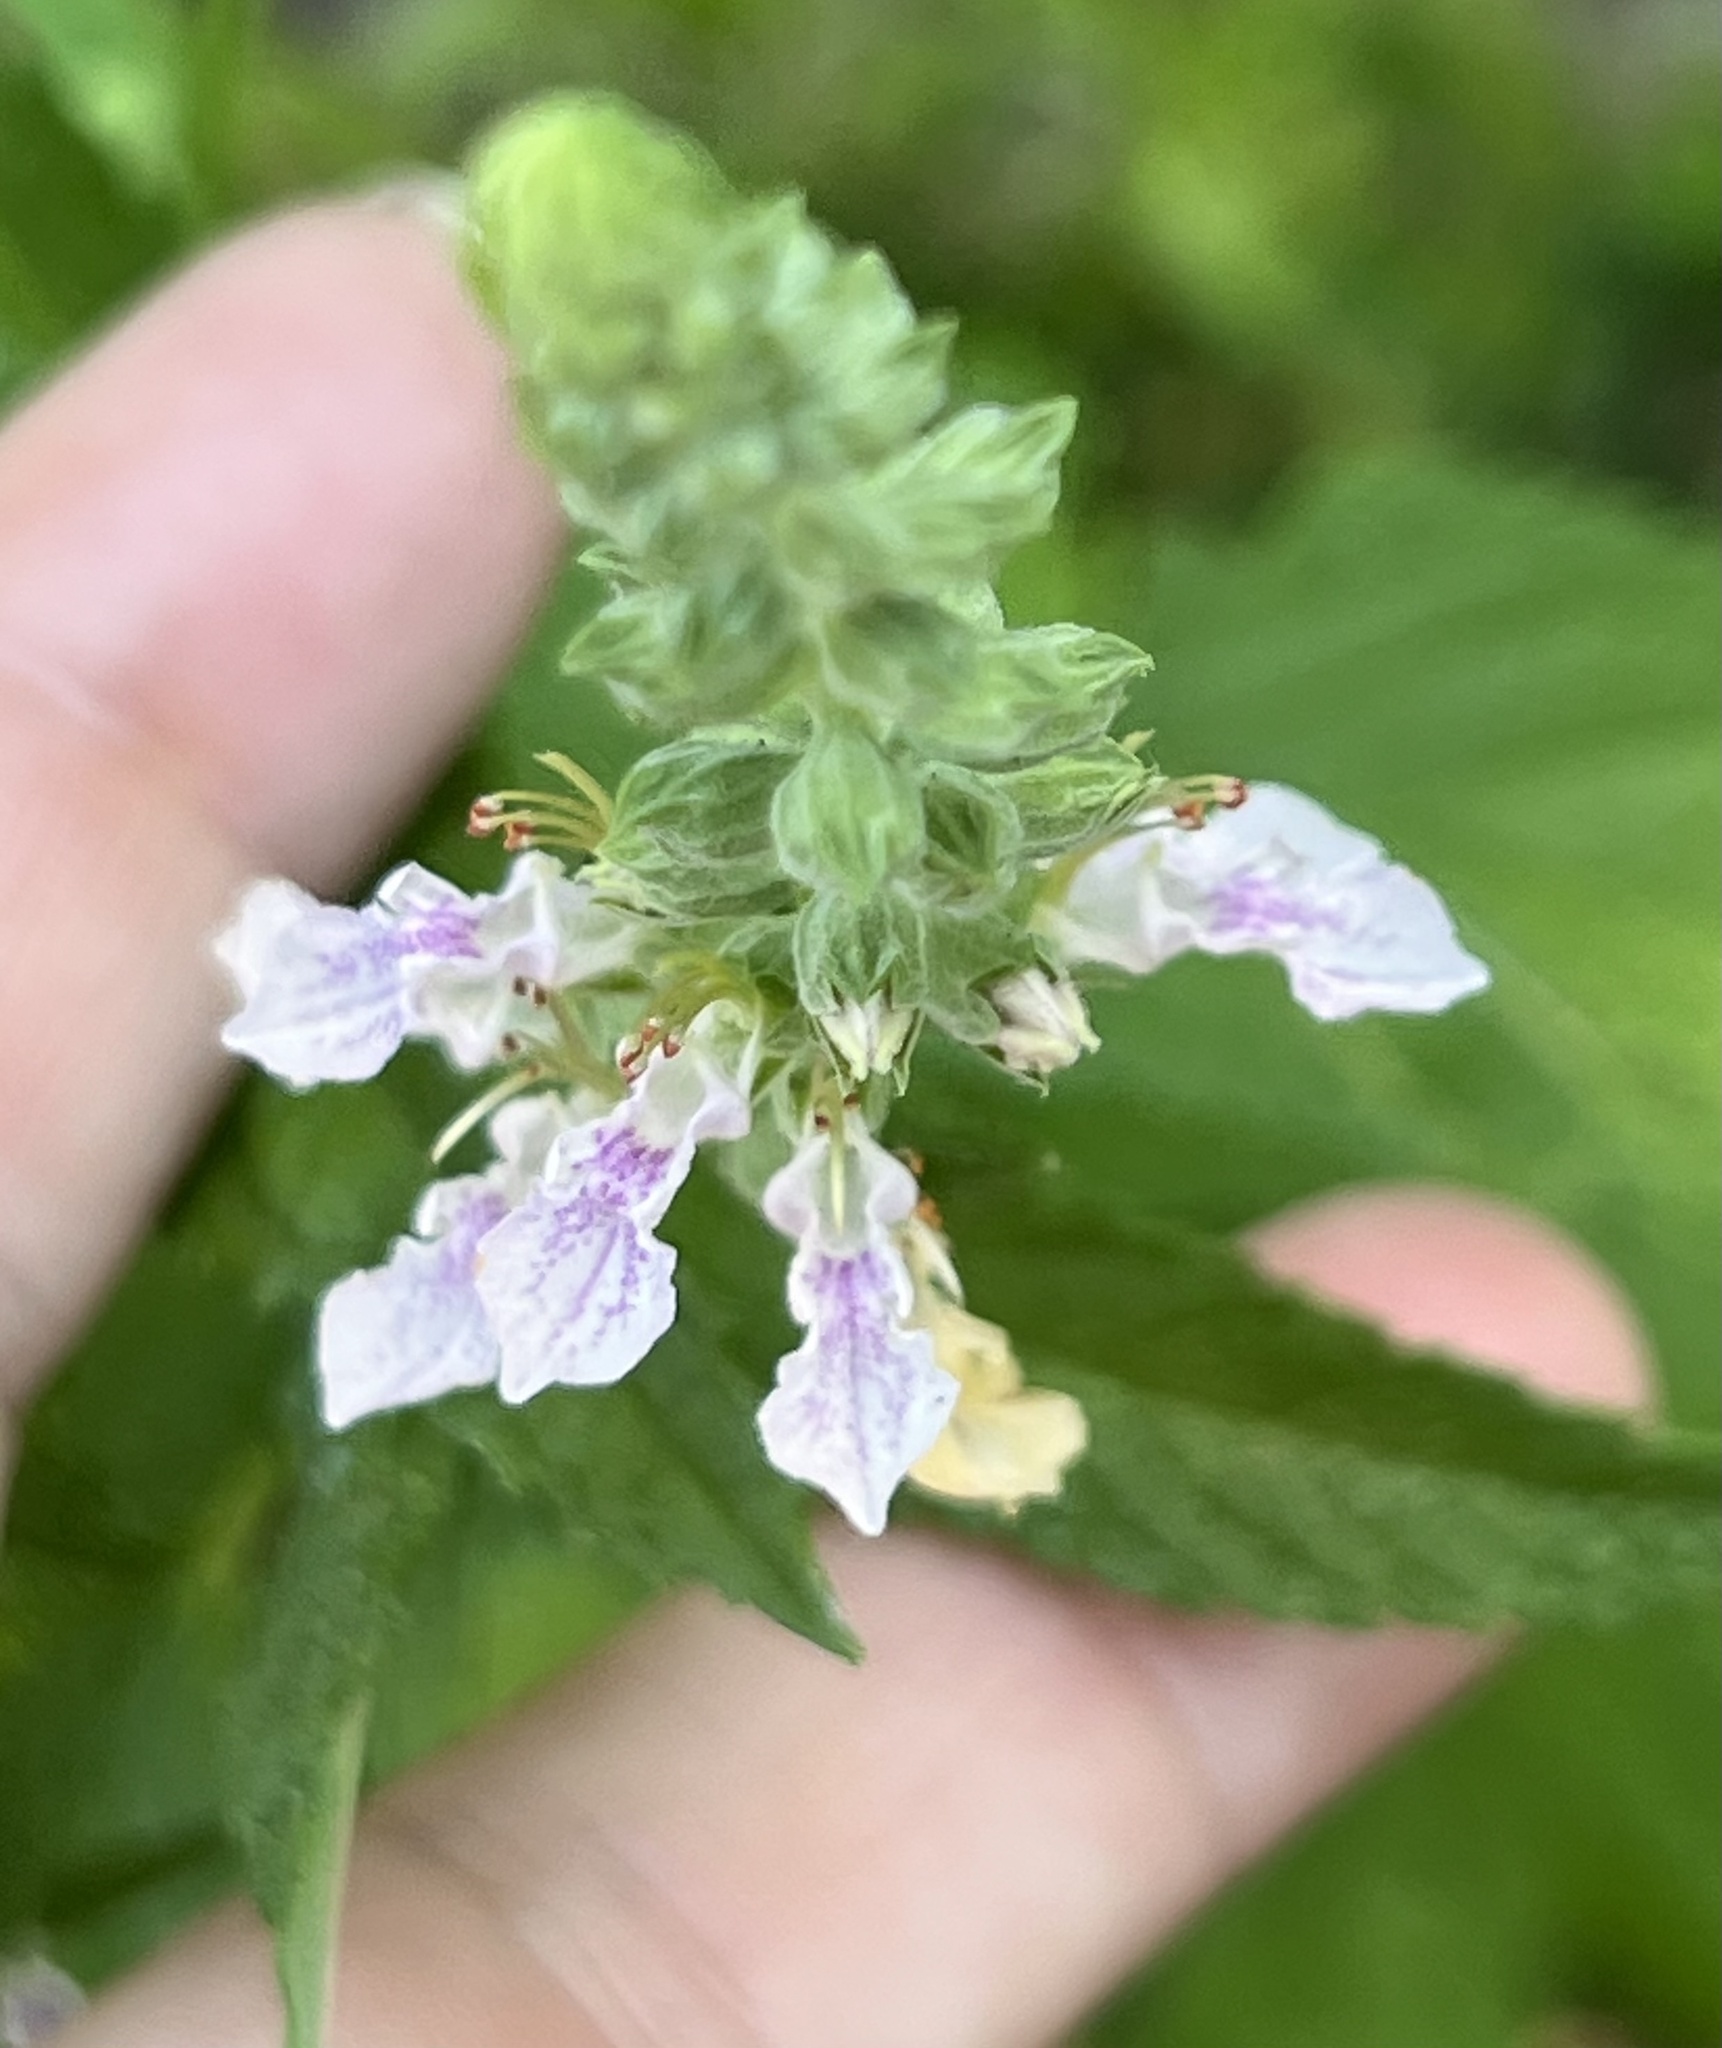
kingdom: Plantae
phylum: Tracheophyta
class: Magnoliopsida
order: Lamiales
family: Lamiaceae
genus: Teucrium
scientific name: Teucrium canadense
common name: American germander
